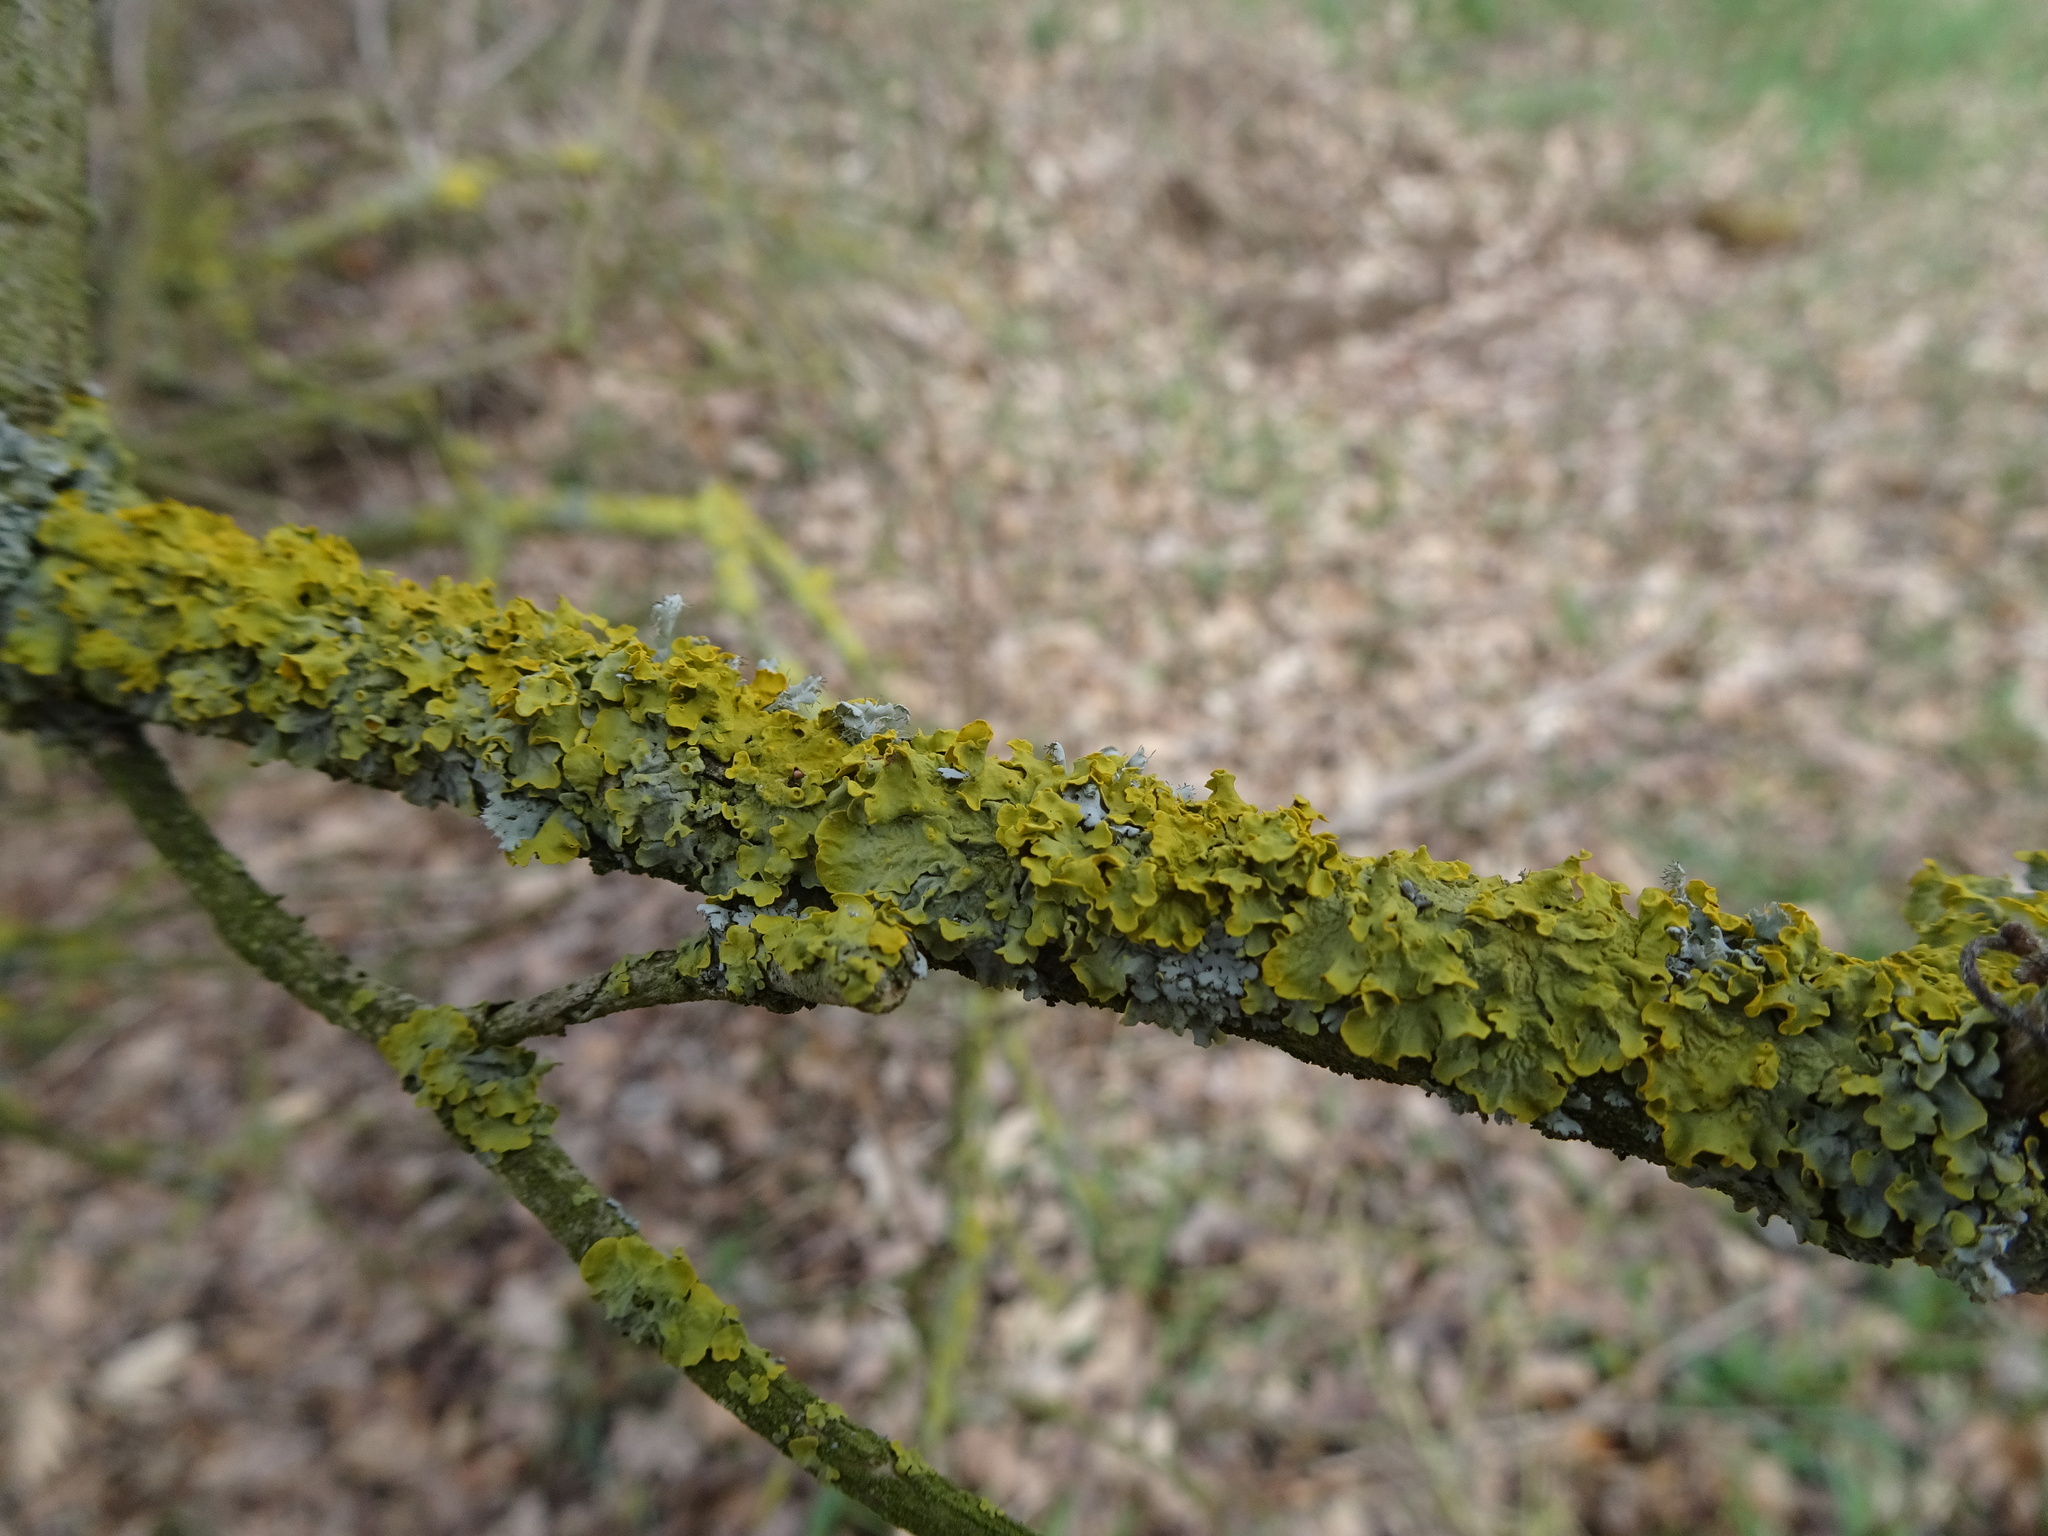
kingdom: Fungi
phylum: Ascomycota
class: Lecanoromycetes
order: Teloschistales
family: Teloschistaceae
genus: Xanthoria
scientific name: Xanthoria parietina
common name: Common orange lichen
